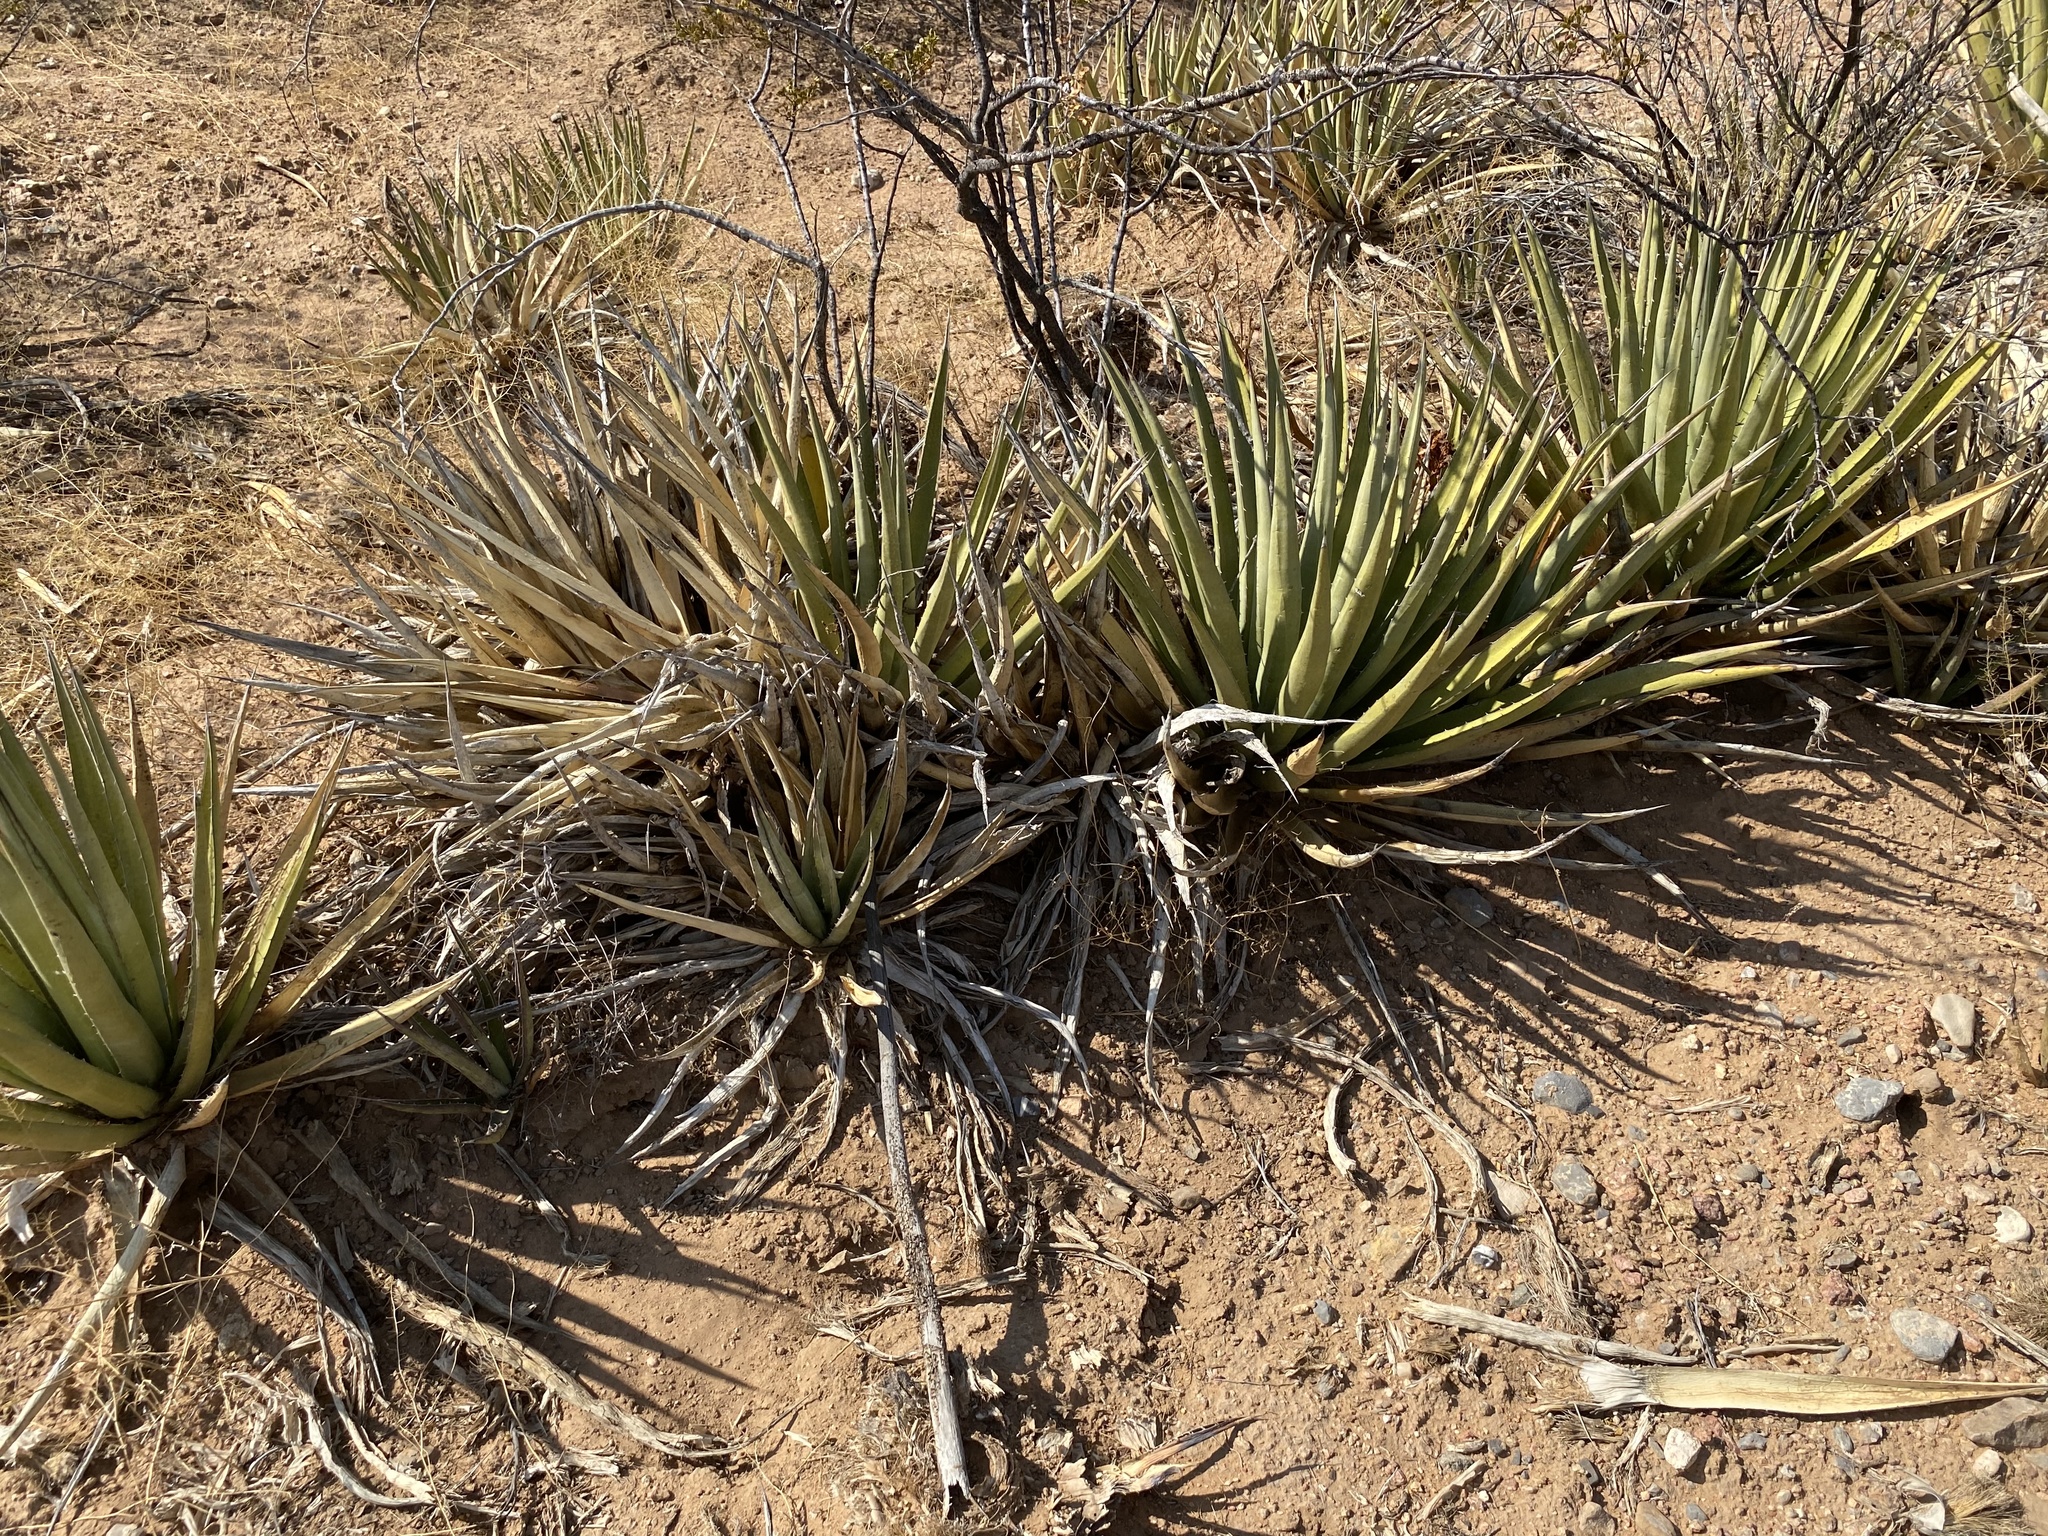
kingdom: Plantae
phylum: Tracheophyta
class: Liliopsida
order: Asparagales
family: Asparagaceae
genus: Agave
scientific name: Agave lechuguilla
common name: Lecheguilla agave
